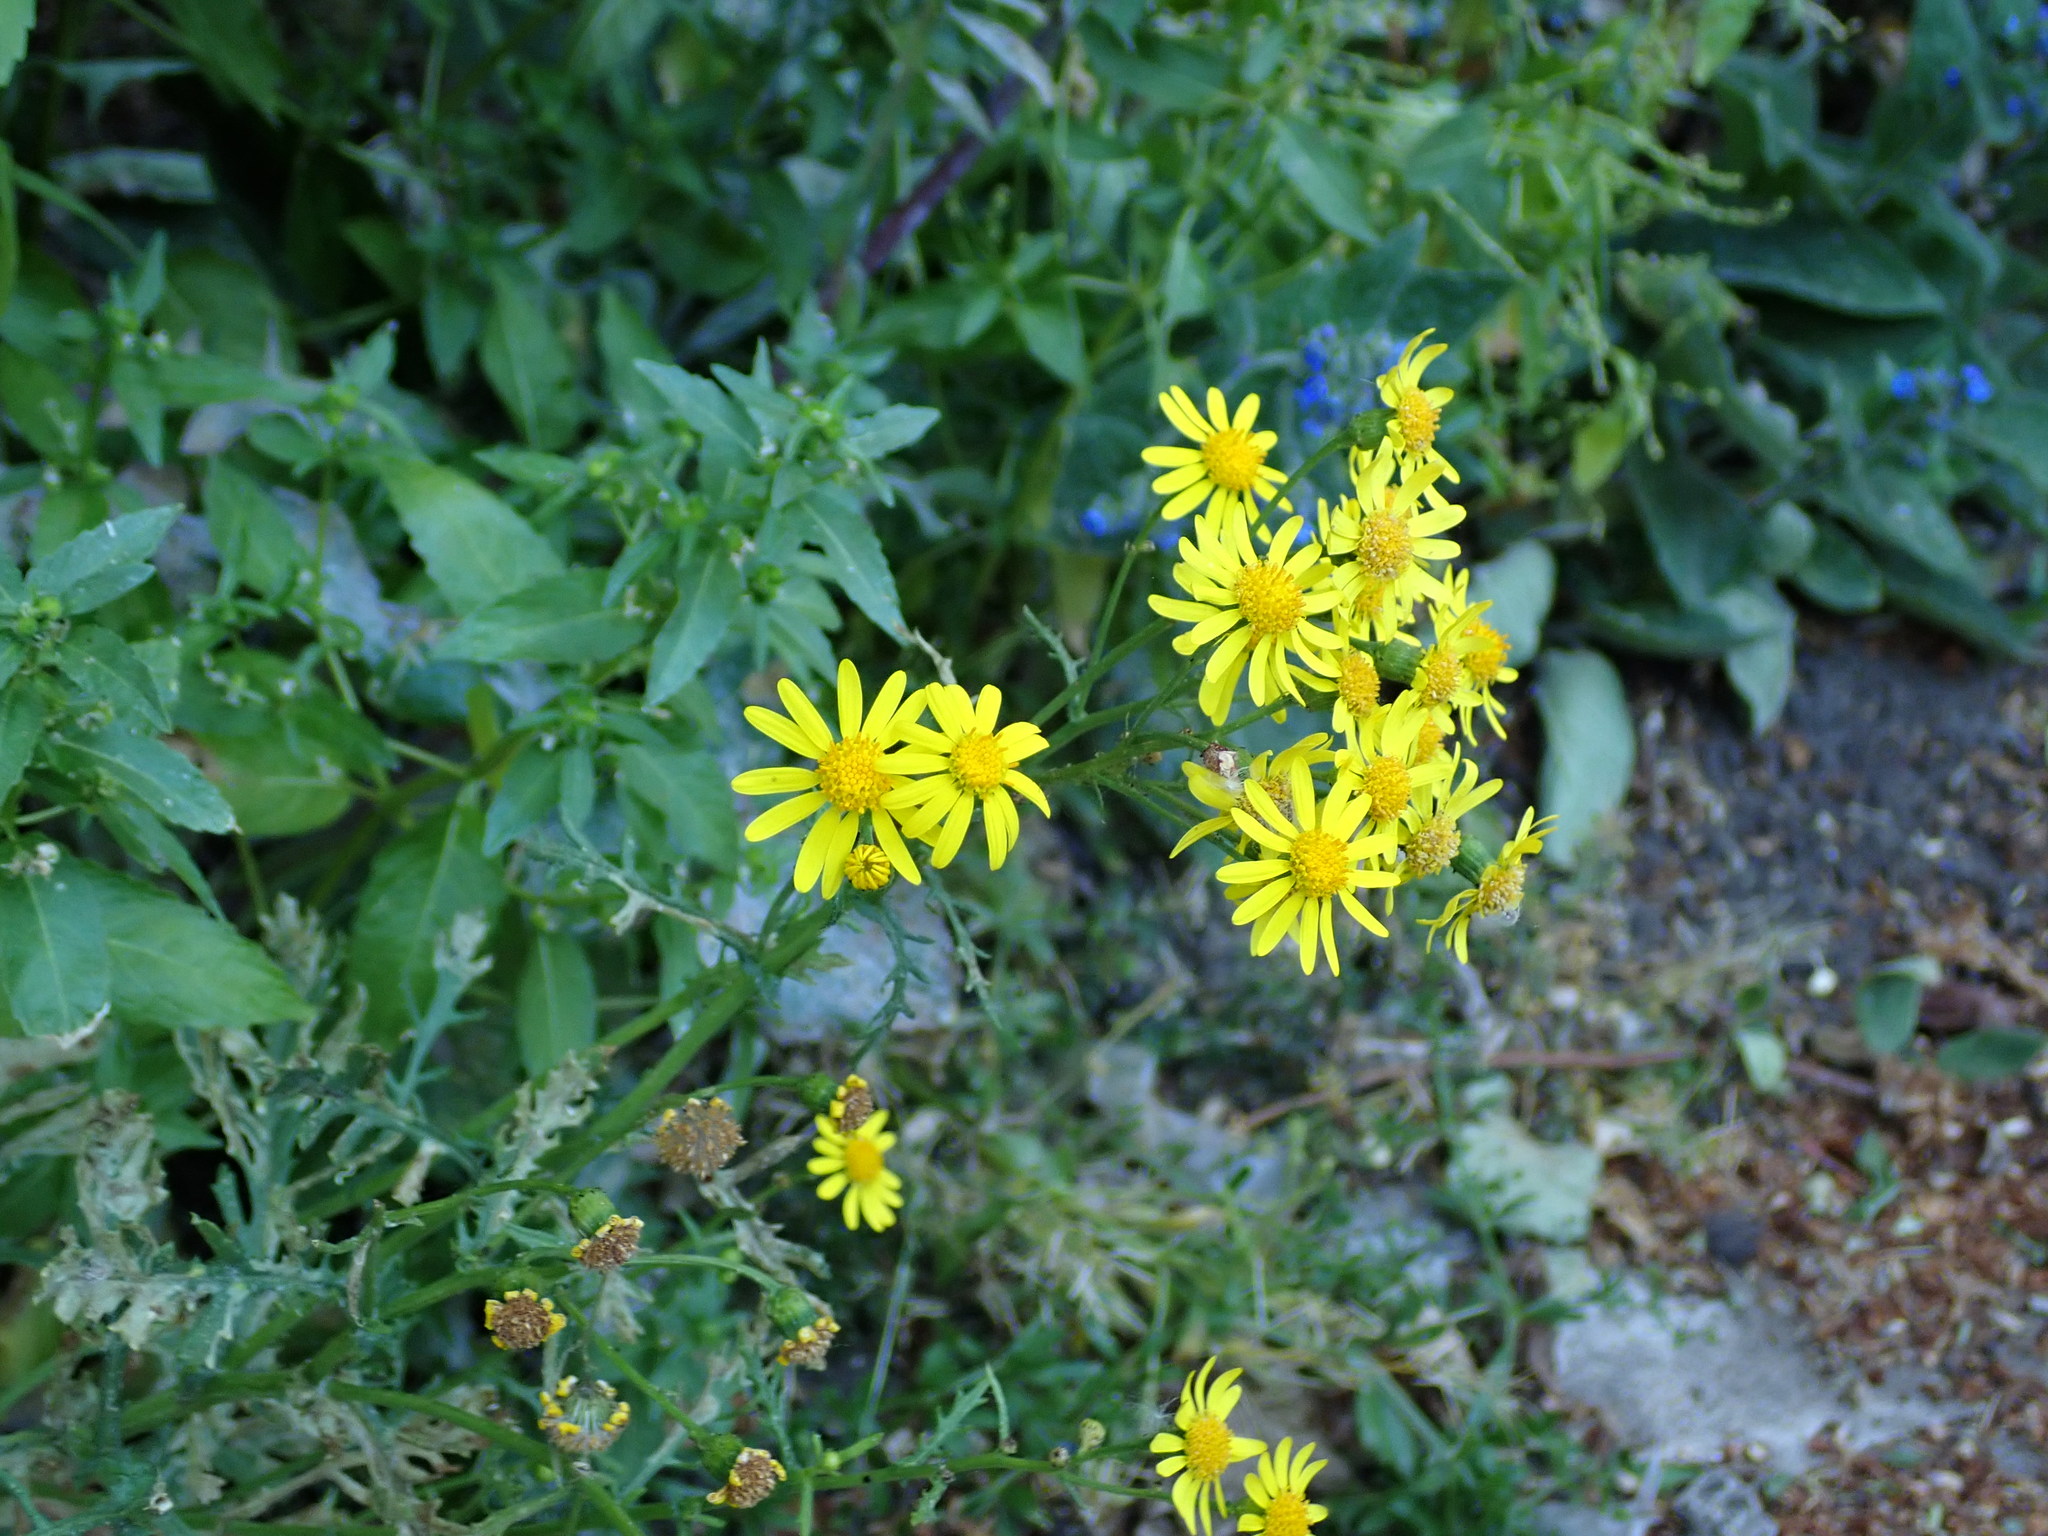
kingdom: Plantae
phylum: Tracheophyta
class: Magnoliopsida
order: Asterales
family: Asteraceae
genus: Senecio
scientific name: Senecio squalidus
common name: Oxford ragwort
